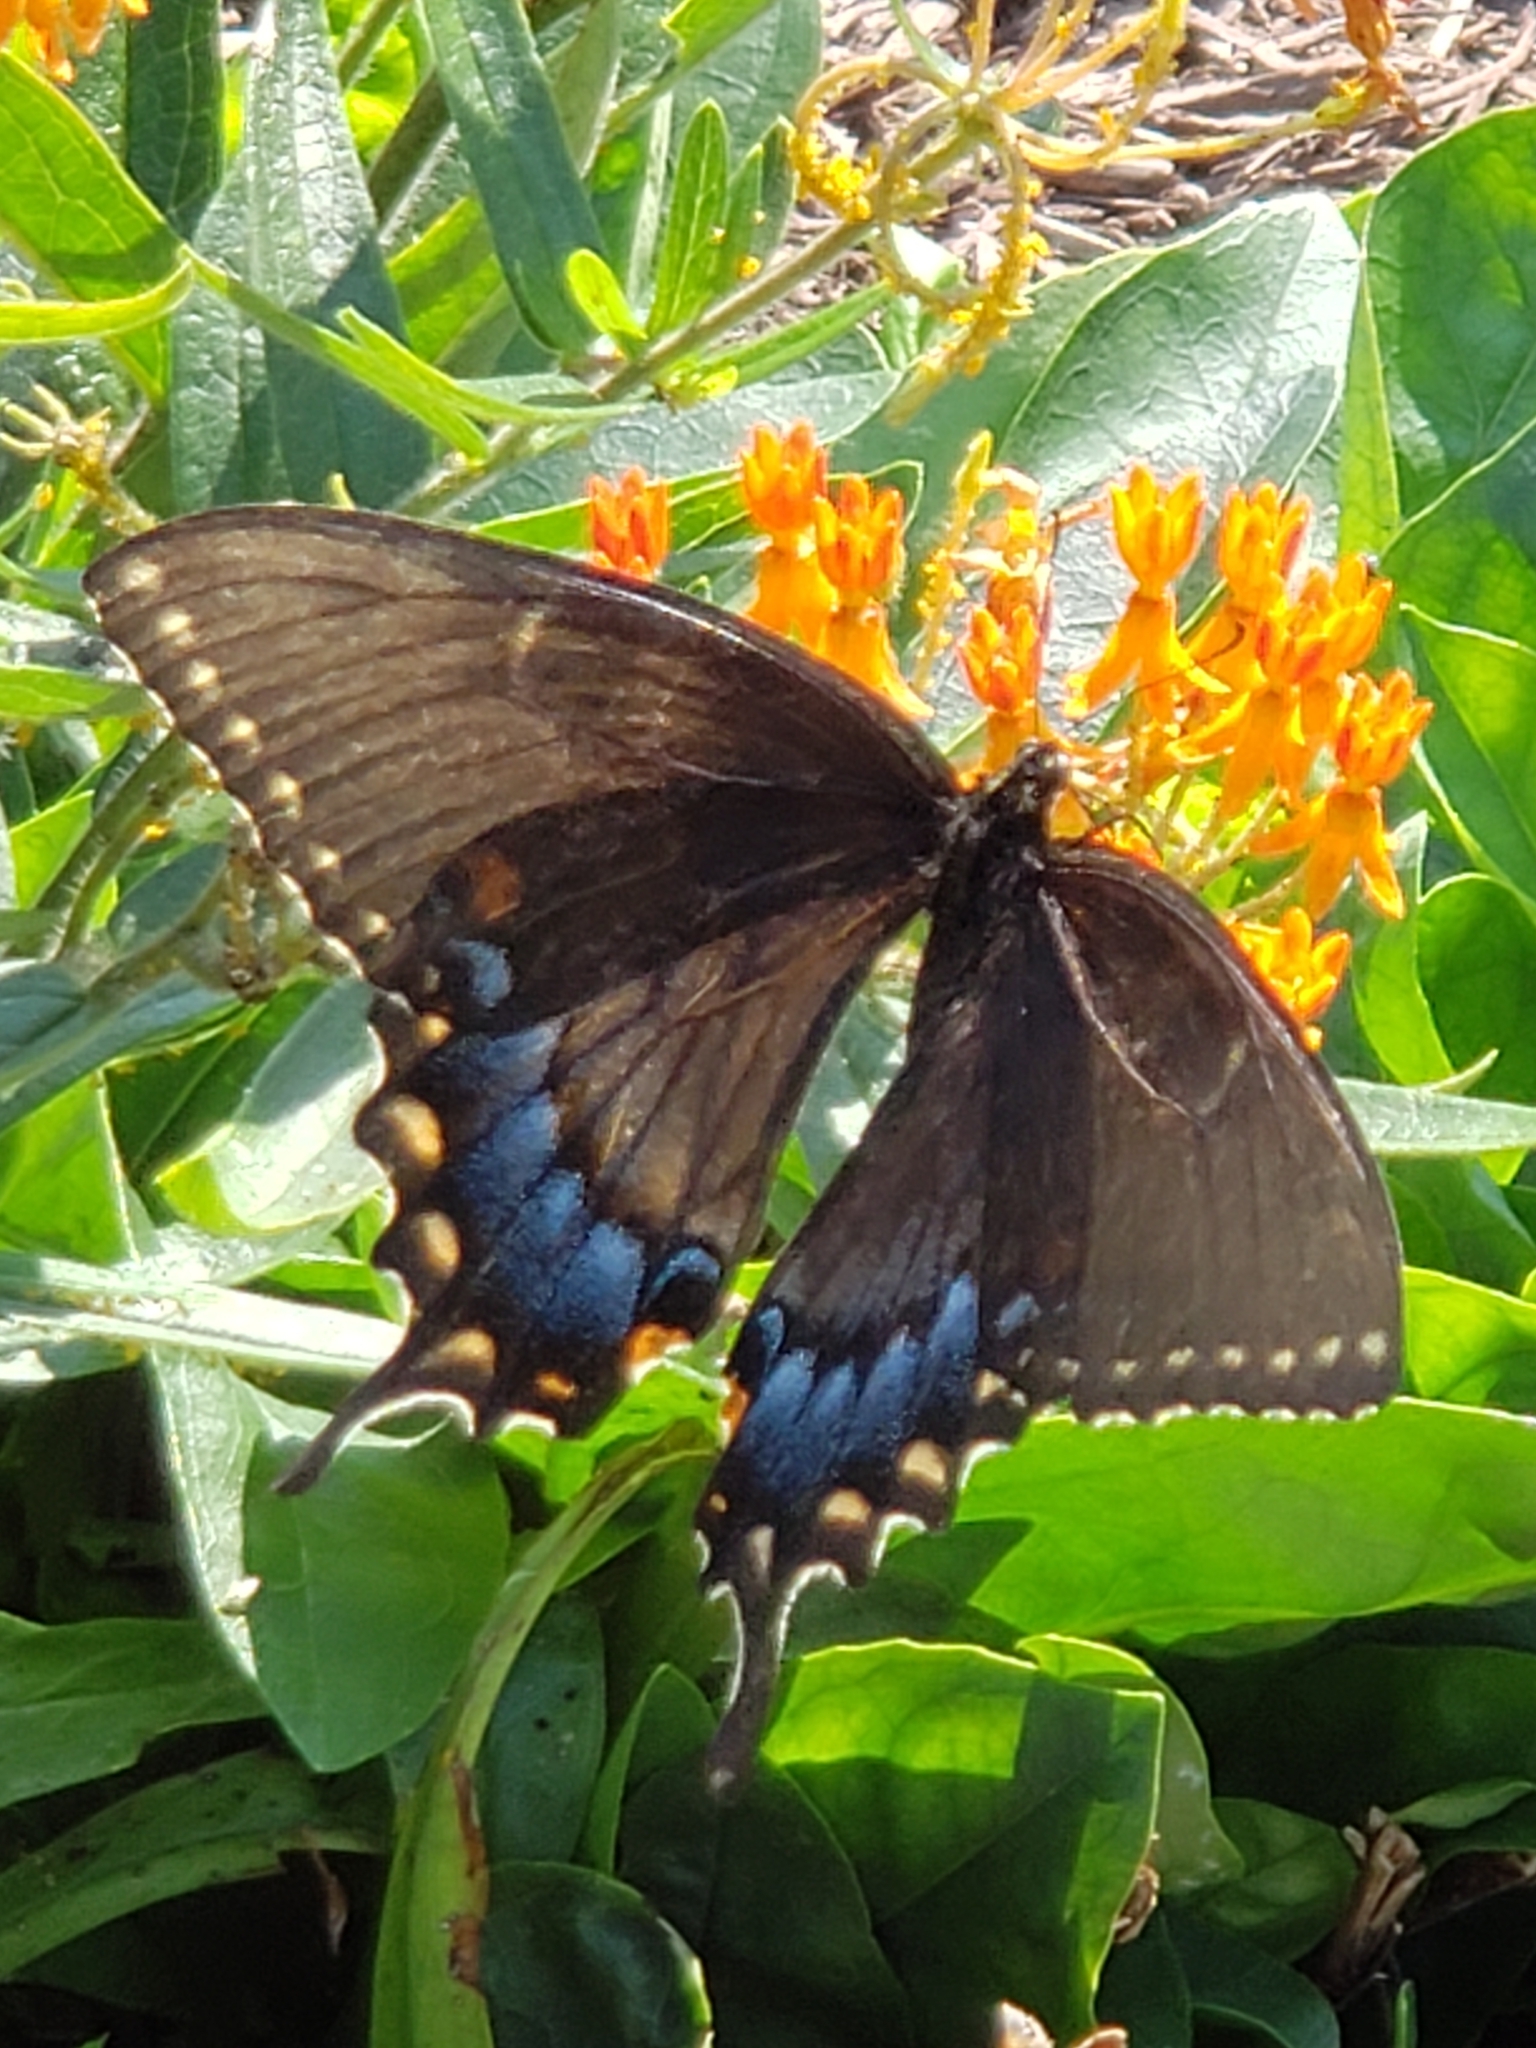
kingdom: Animalia
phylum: Arthropoda
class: Insecta
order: Lepidoptera
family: Papilionidae
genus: Papilio
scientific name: Papilio glaucus
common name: Tiger swallowtail
